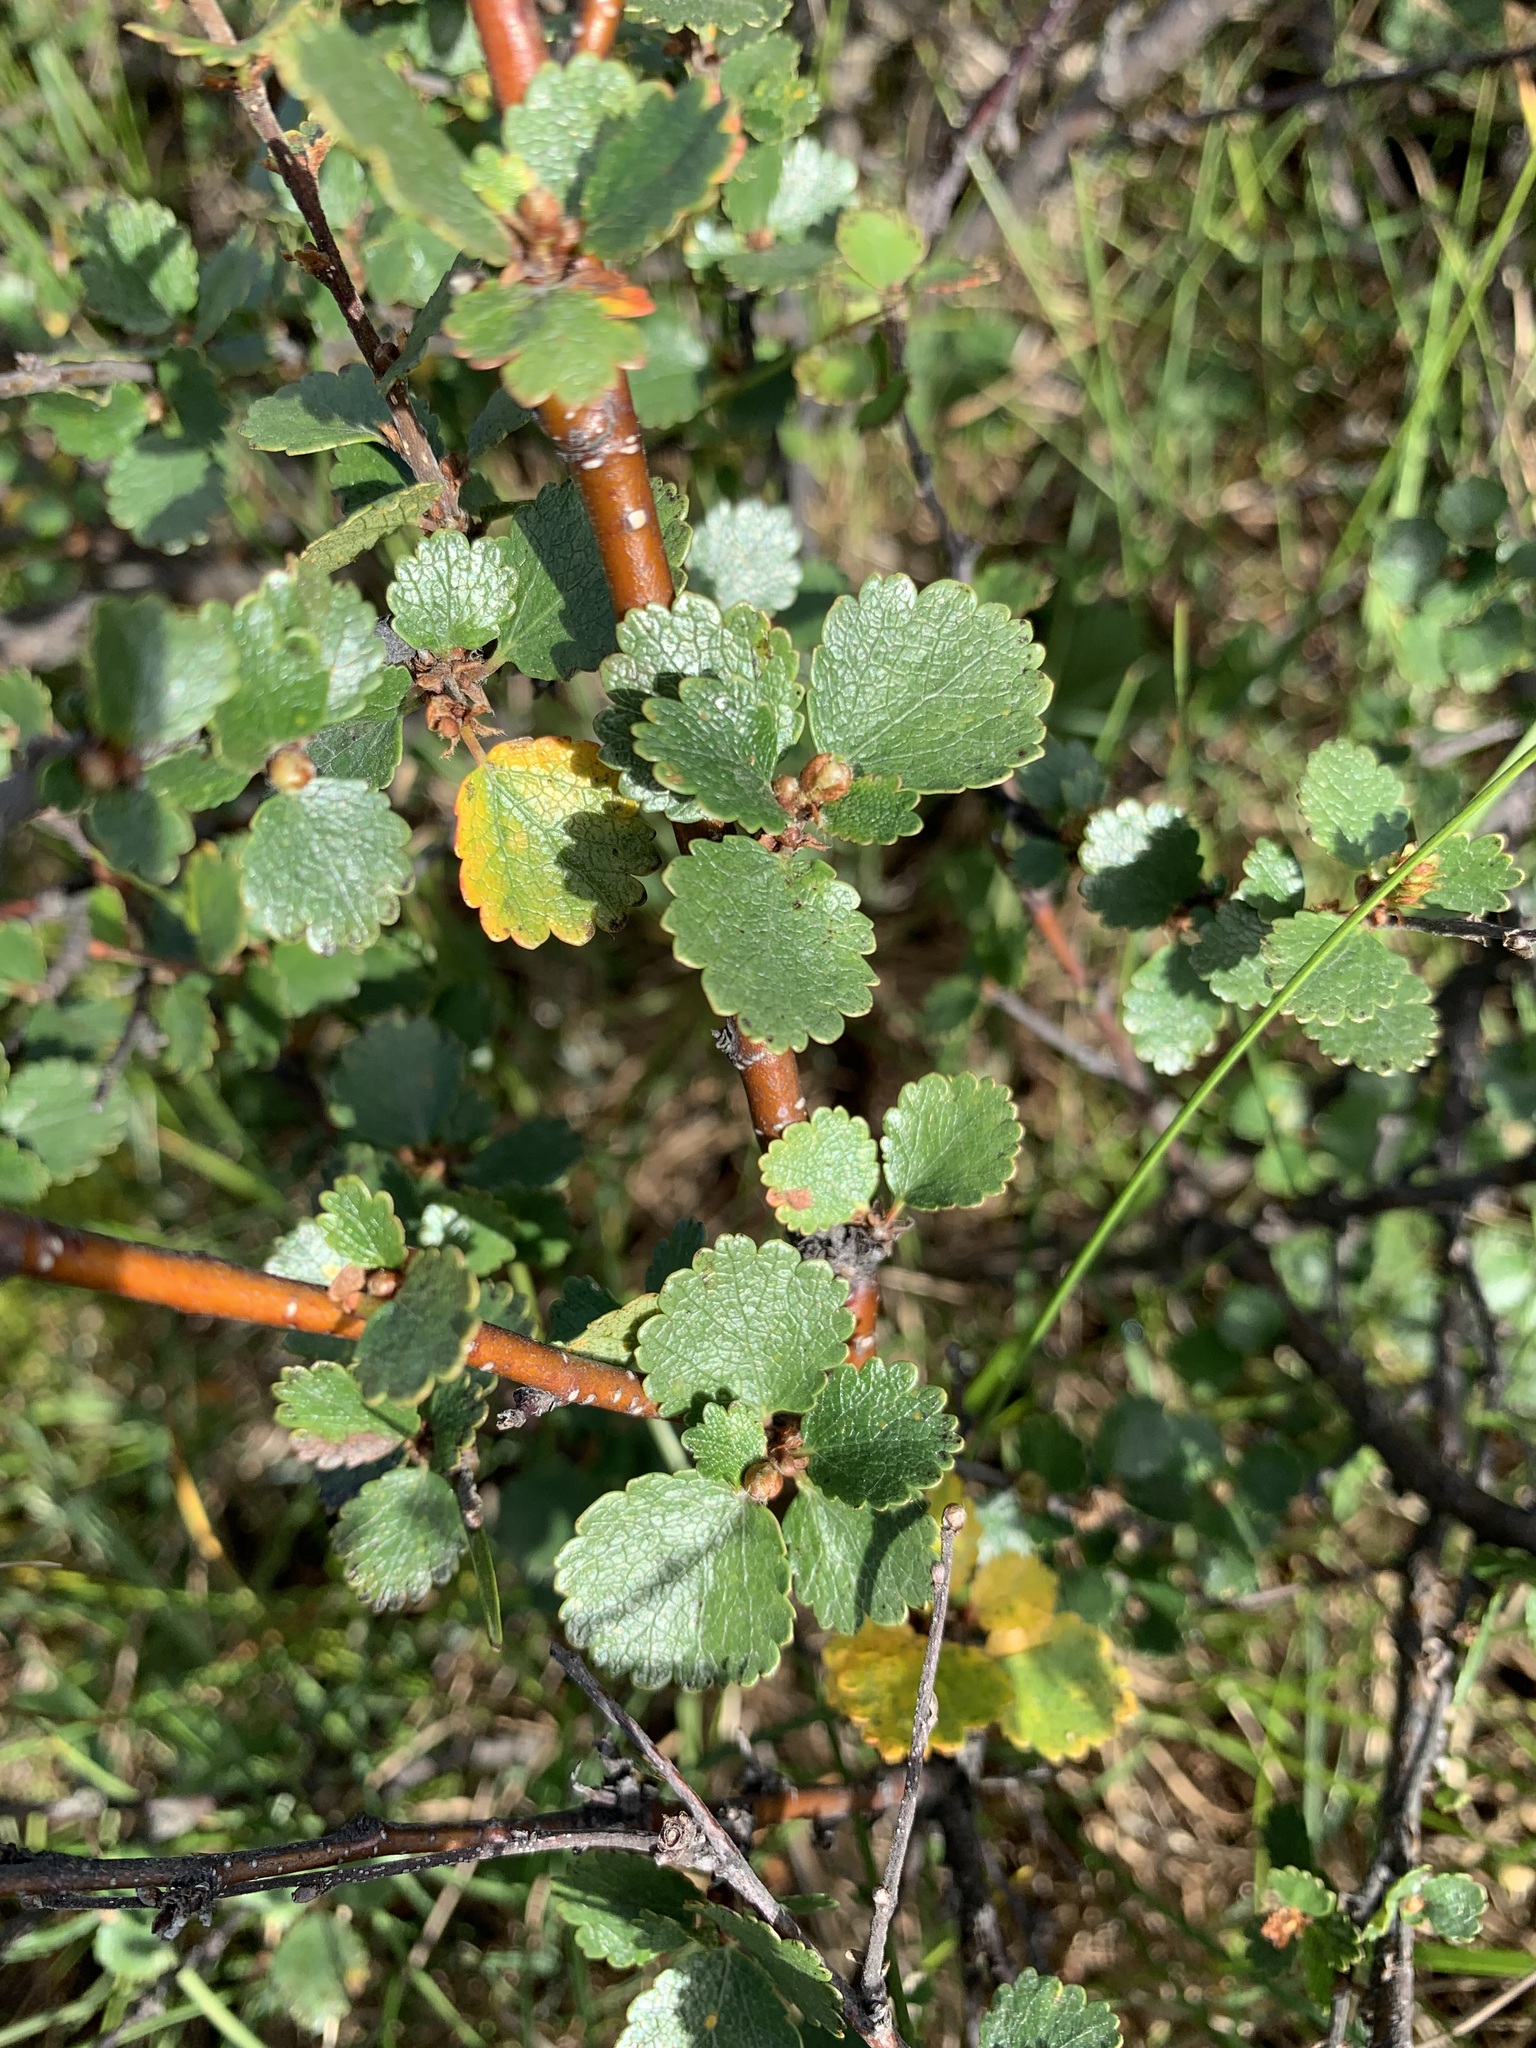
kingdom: Plantae
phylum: Tracheophyta
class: Magnoliopsida
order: Fagales
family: Betulaceae
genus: Betula
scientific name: Betula nana
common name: Arctic dwarf birch
